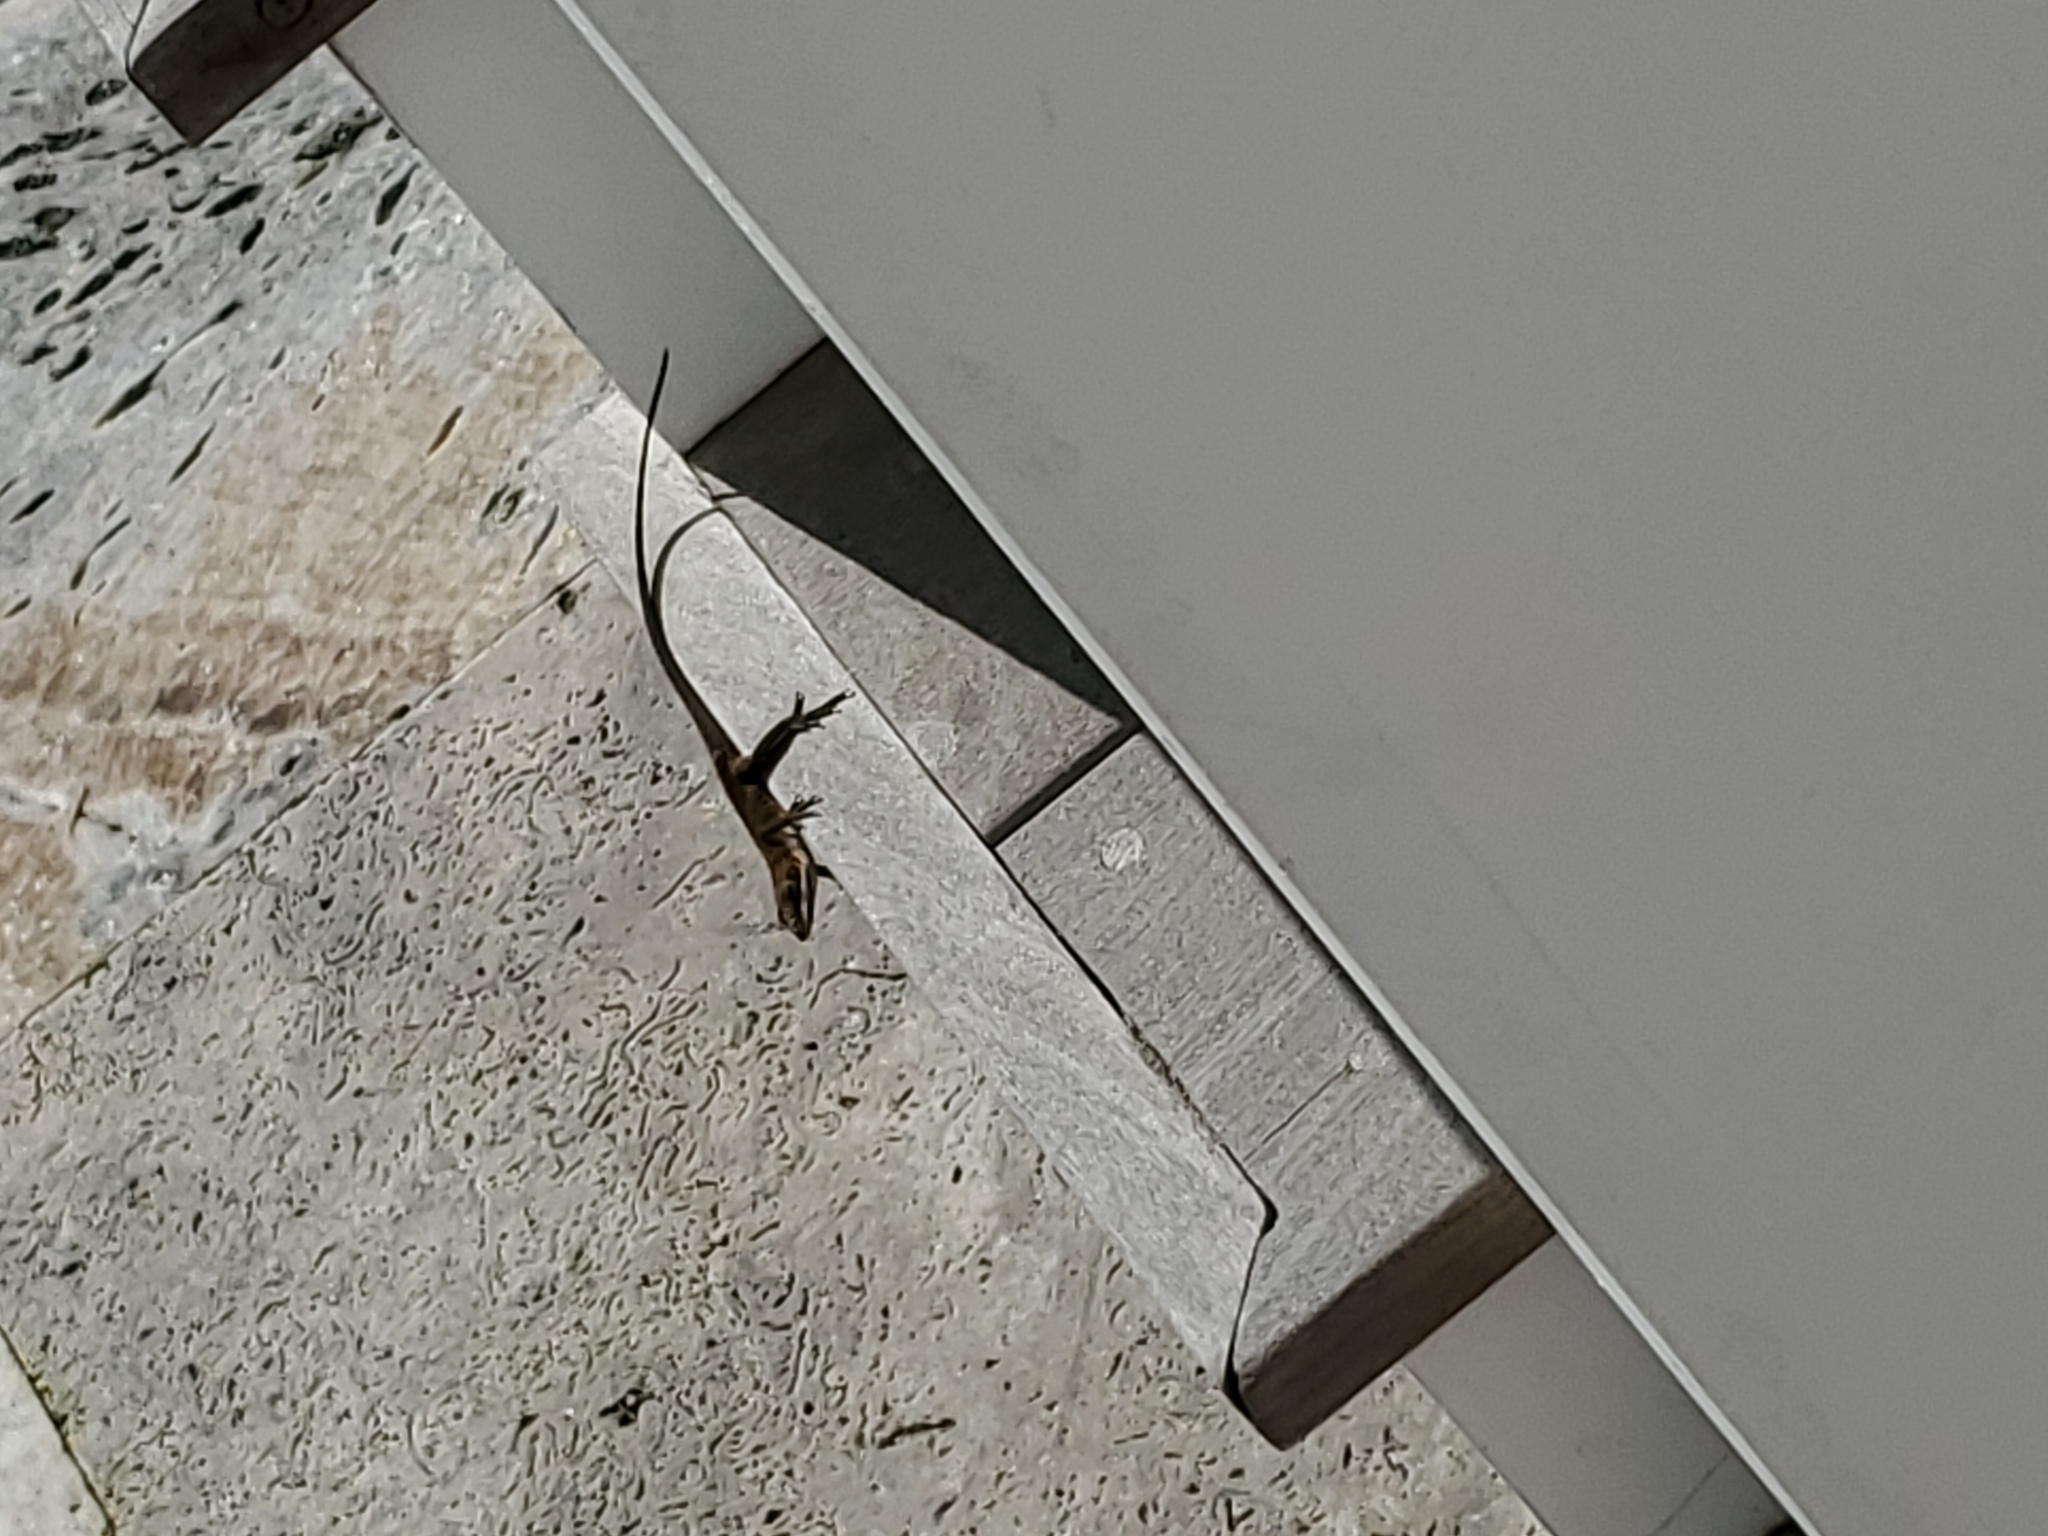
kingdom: Animalia
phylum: Chordata
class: Squamata
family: Dactyloidae
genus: Anolis
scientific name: Anolis carolinensis
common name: Green anole
